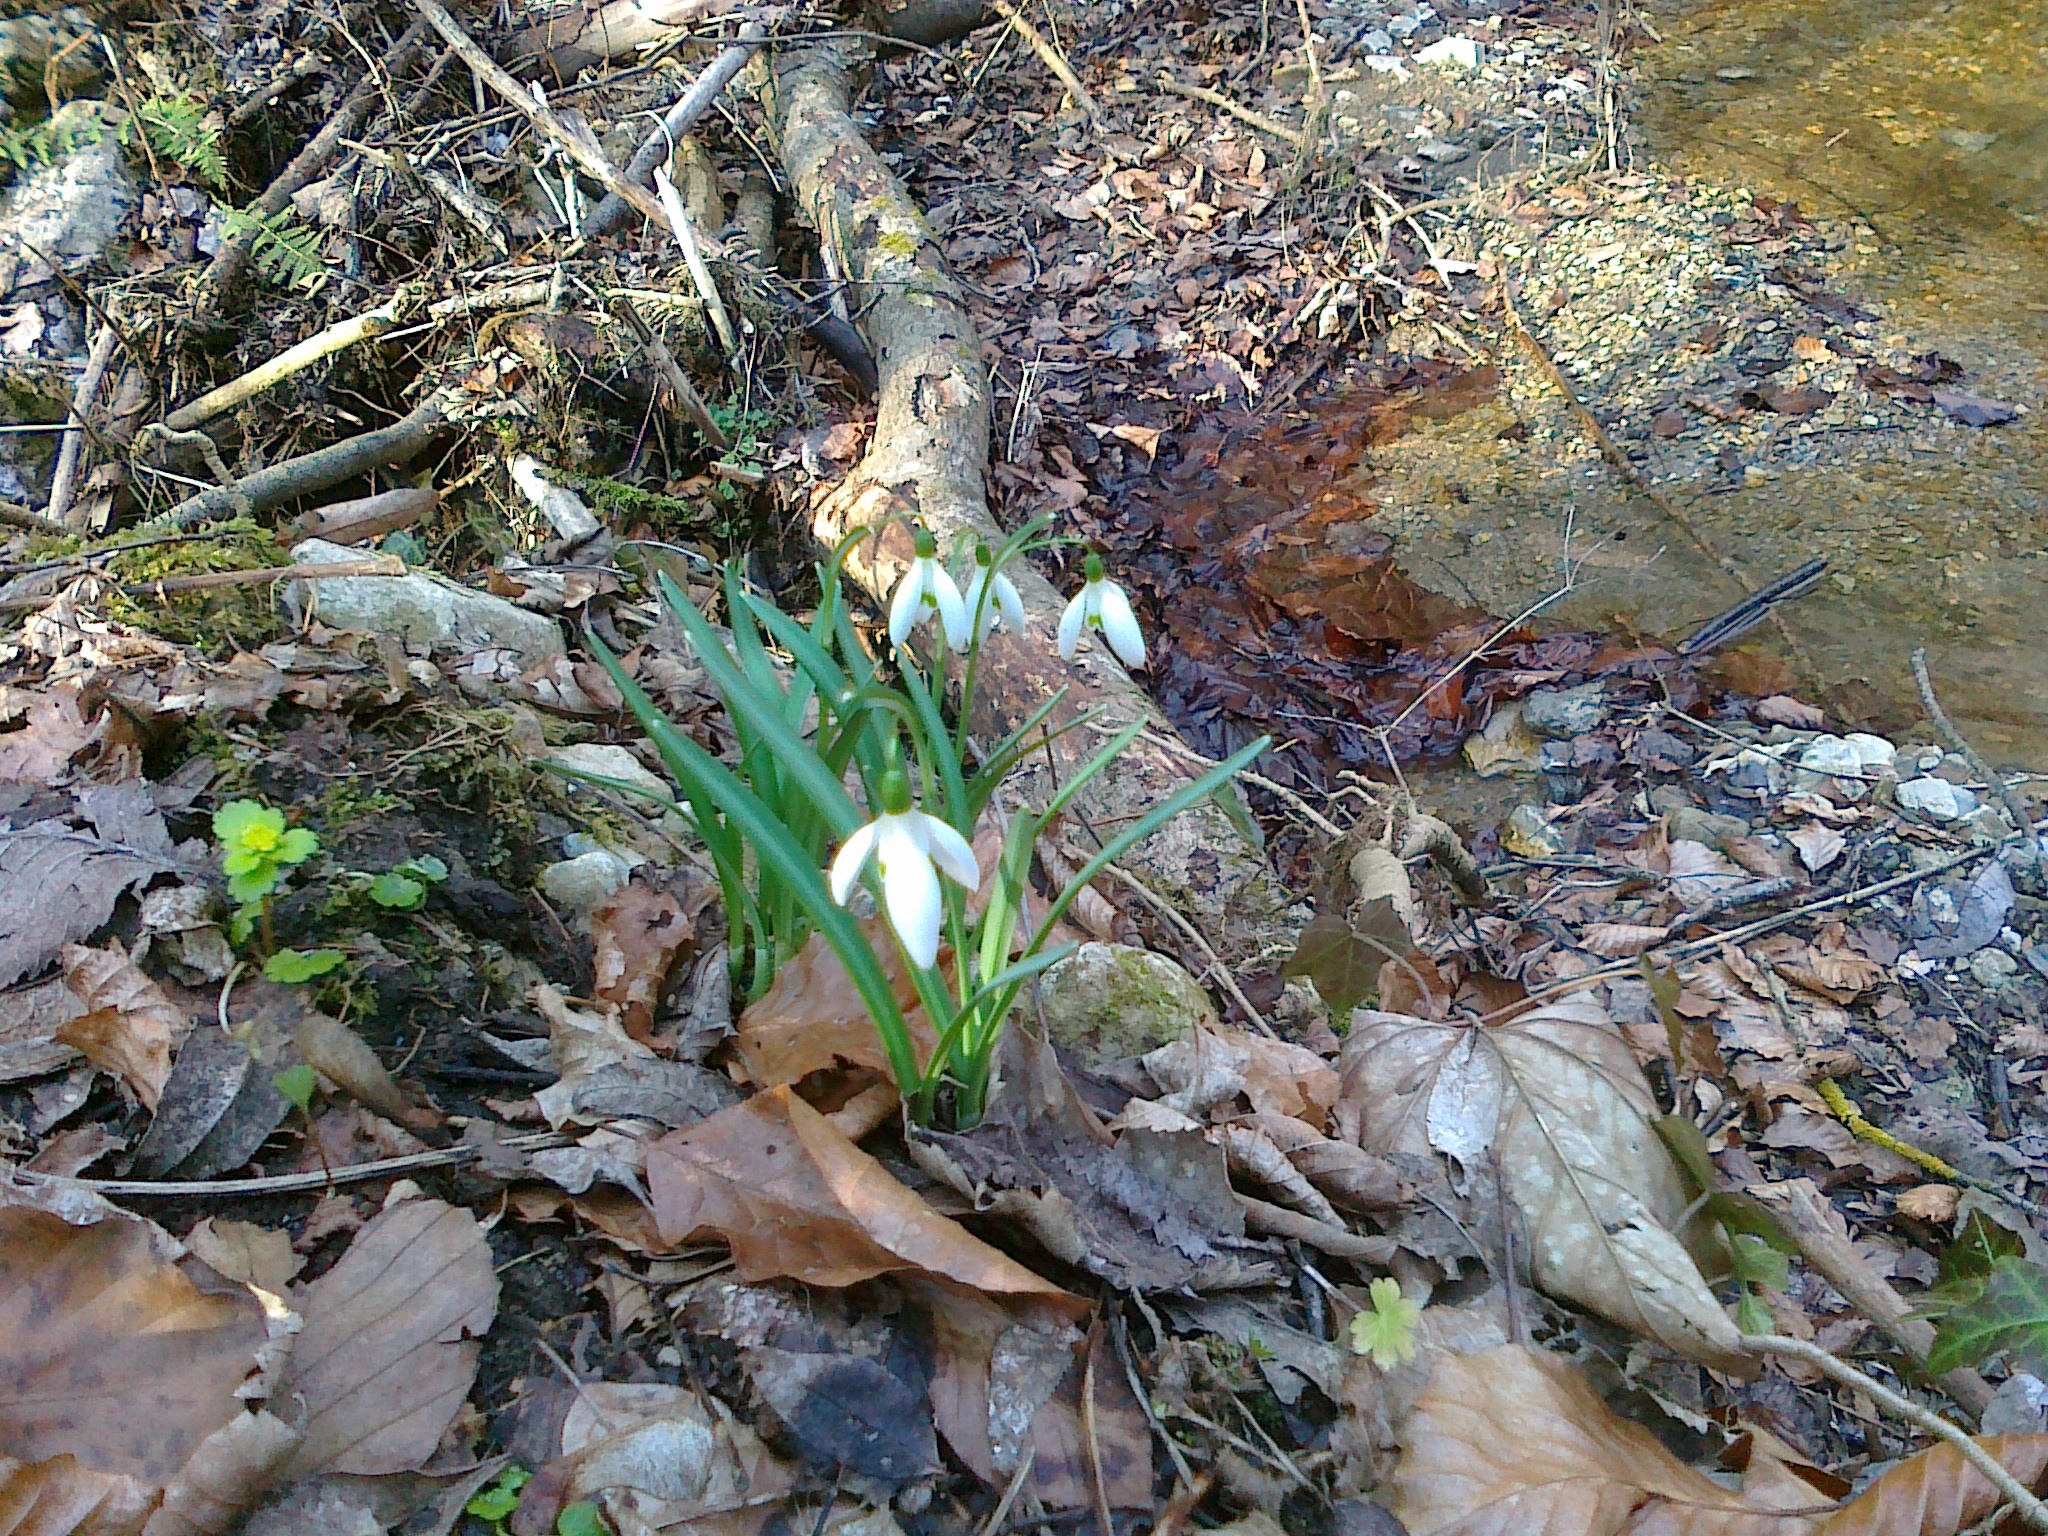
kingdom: Plantae
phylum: Tracheophyta
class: Liliopsida
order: Asparagales
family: Amaryllidaceae
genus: Galanthus
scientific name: Galanthus nivalis
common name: Snowdrop
